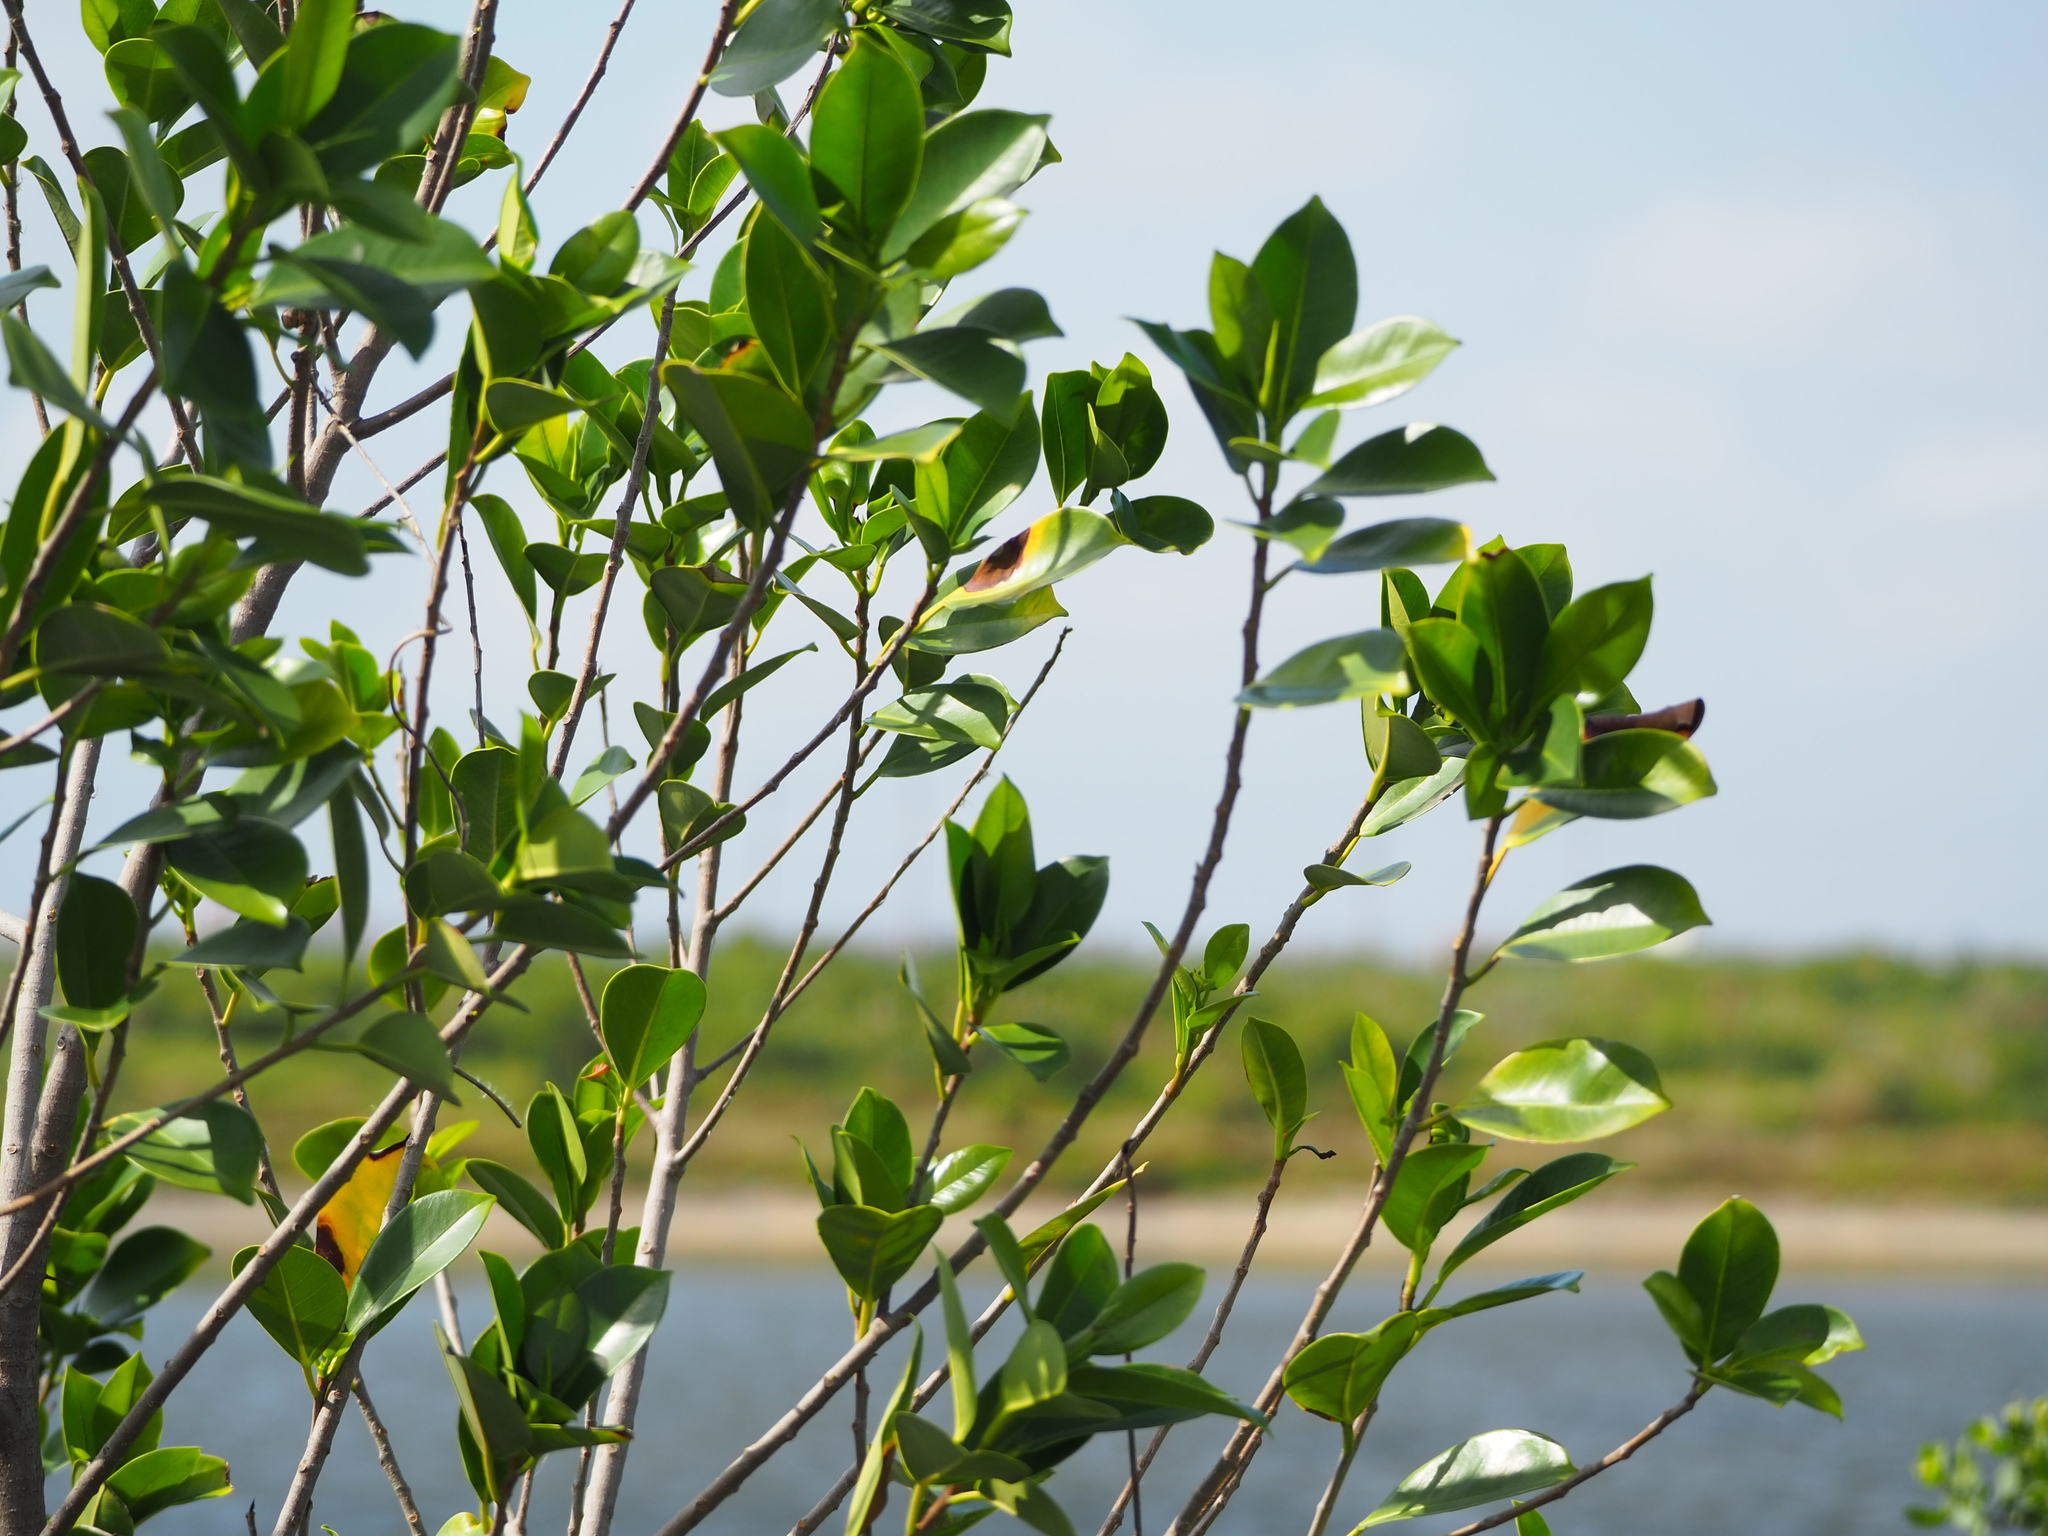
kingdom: Plantae
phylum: Tracheophyta
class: Magnoliopsida
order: Malpighiales
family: Rhizophoraceae
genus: Kandelia
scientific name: Kandelia obovata
